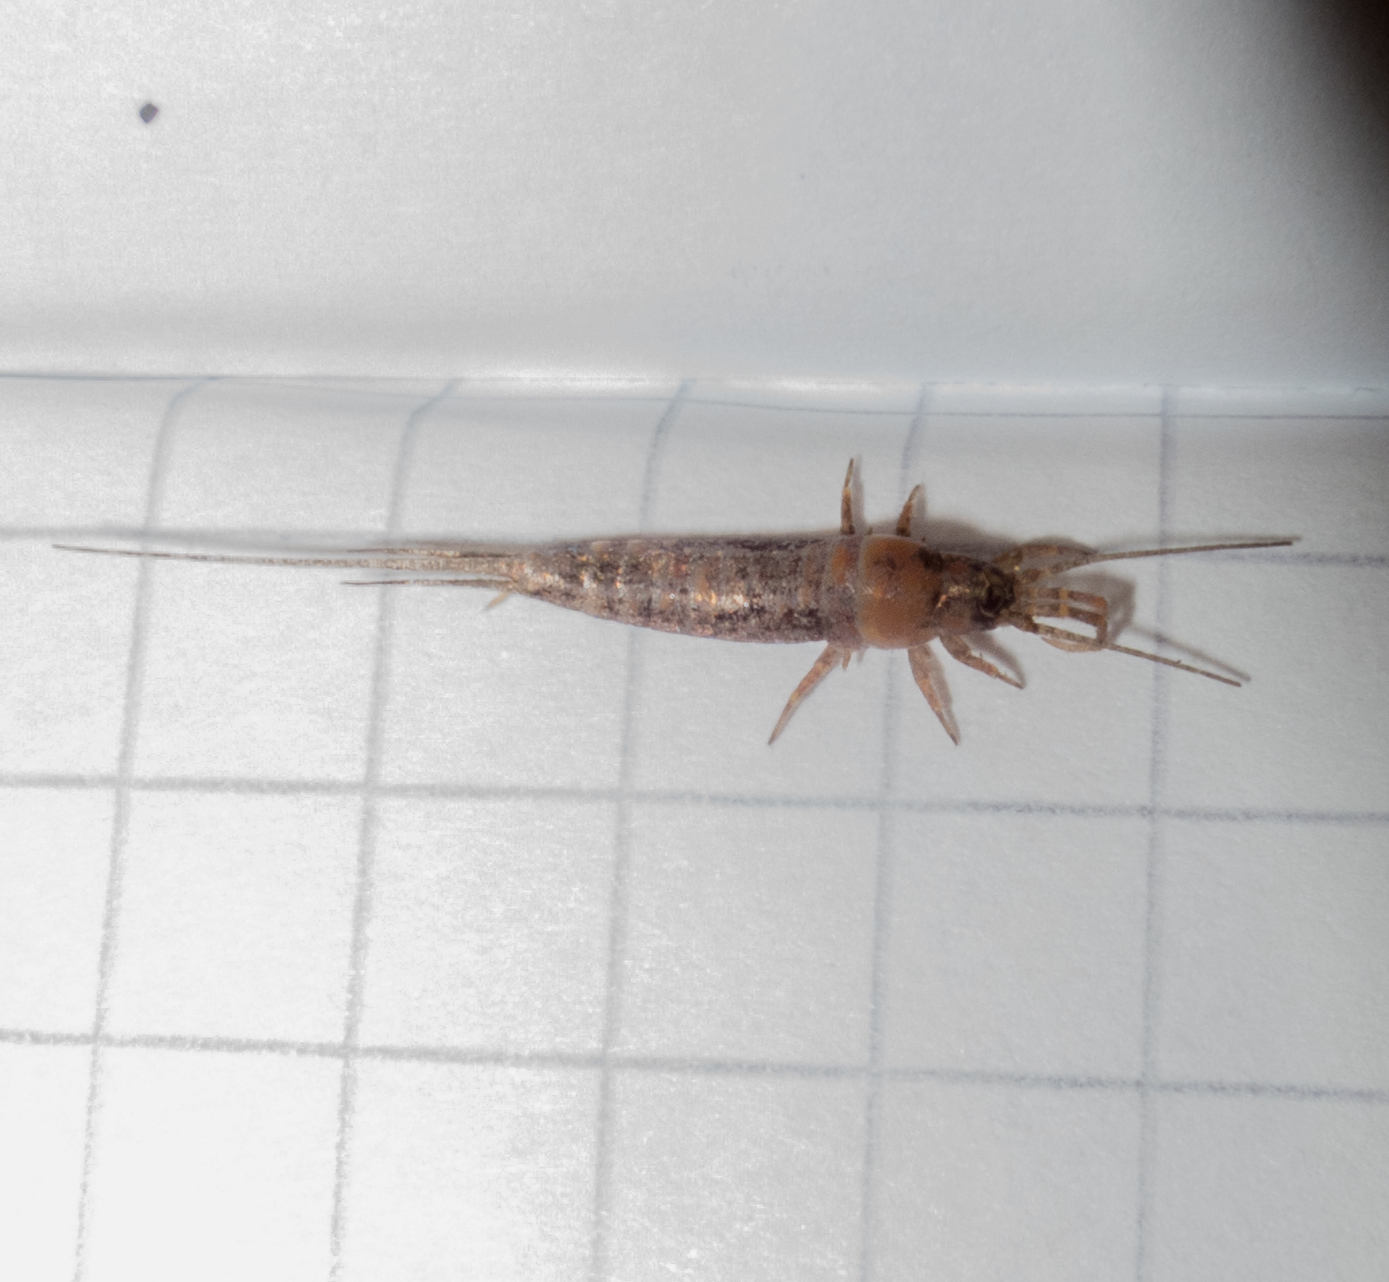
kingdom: Animalia
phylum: Arthropoda
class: Insecta
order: Archaeognatha
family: Machilidae
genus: Lepismachilis
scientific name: Lepismachilis y-signata
